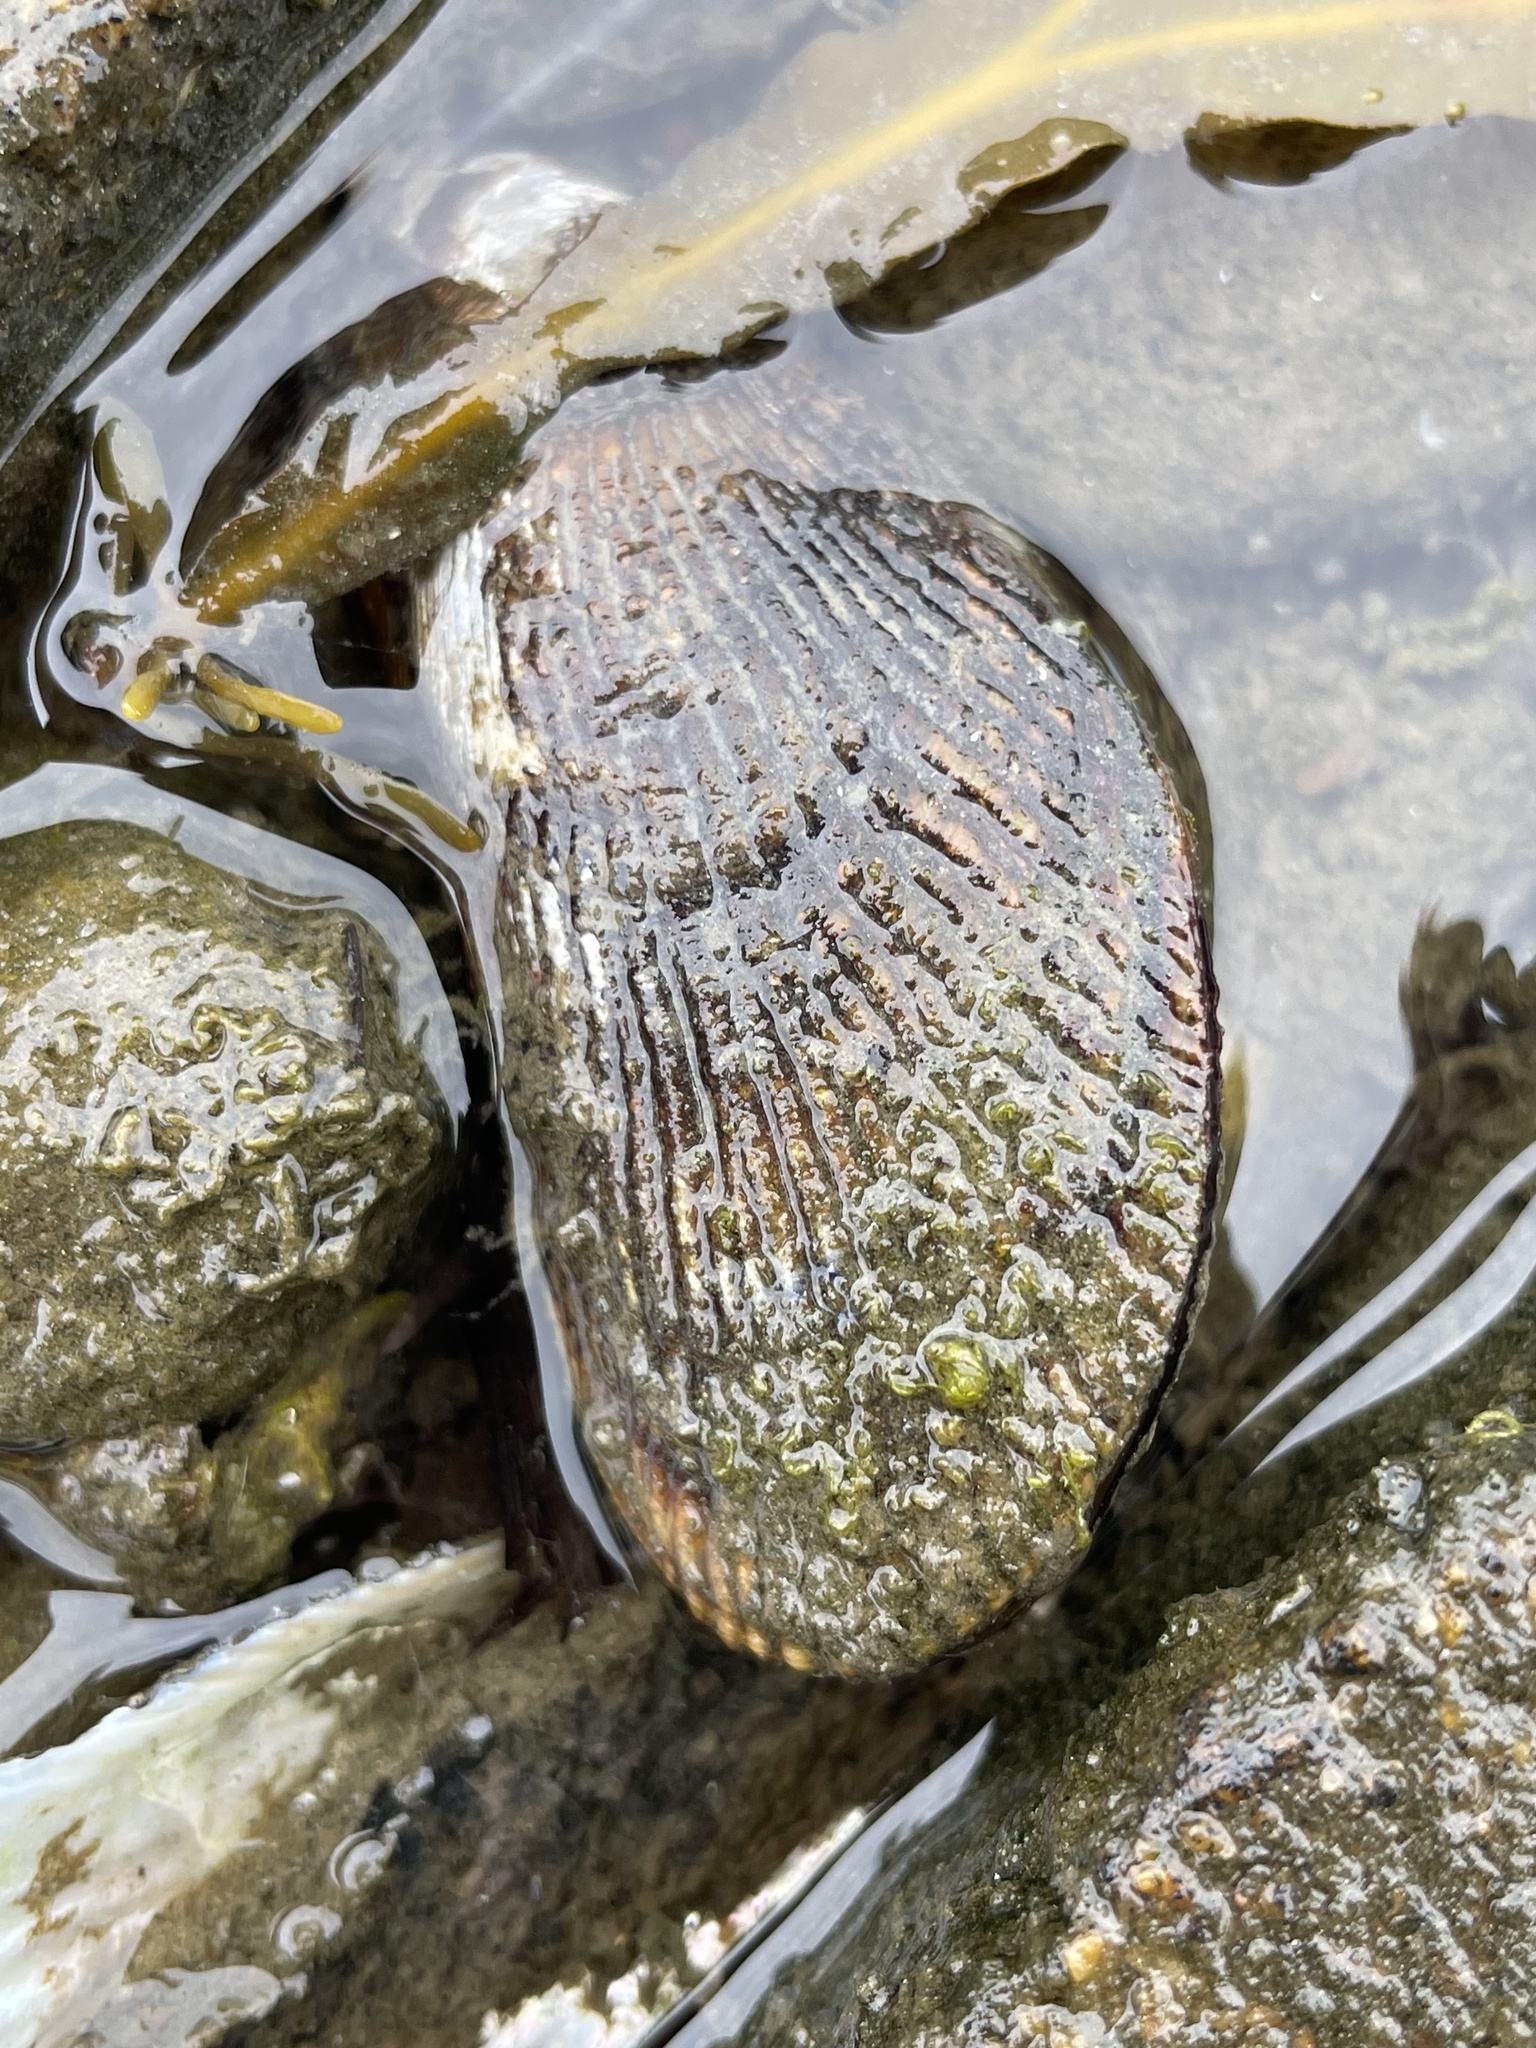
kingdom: Animalia
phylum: Mollusca
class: Bivalvia
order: Mytilida
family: Mytilidae
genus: Geukensia
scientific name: Geukensia demissa
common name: Ribbed mussel
